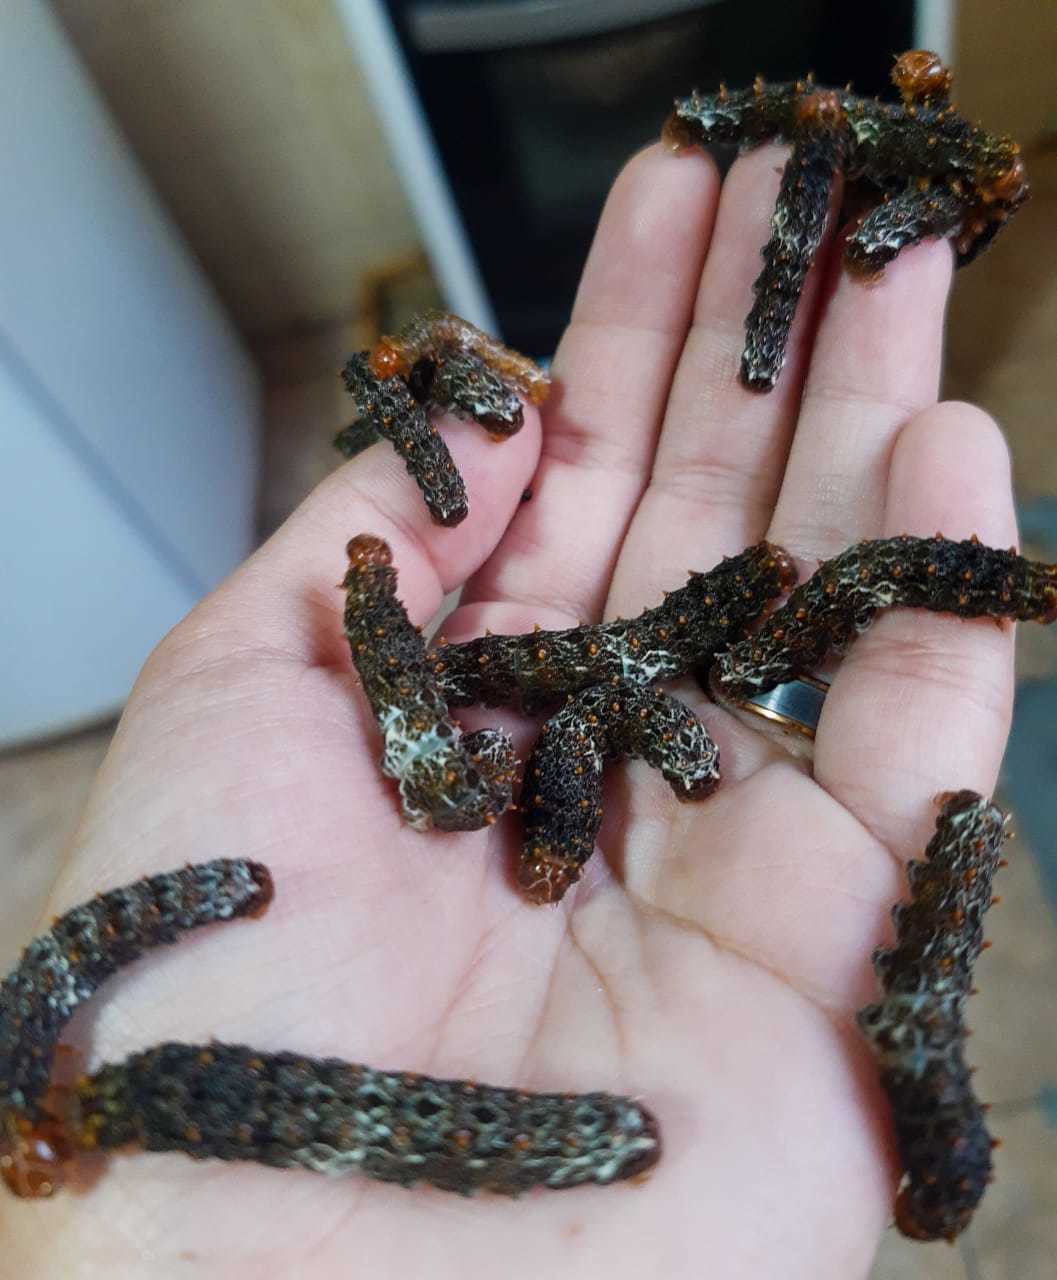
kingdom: Animalia
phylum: Arthropoda
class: Insecta
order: Lepidoptera
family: Papilionidae
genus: Papilio
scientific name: Papilio anchisiades
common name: Idaes swallowtail
